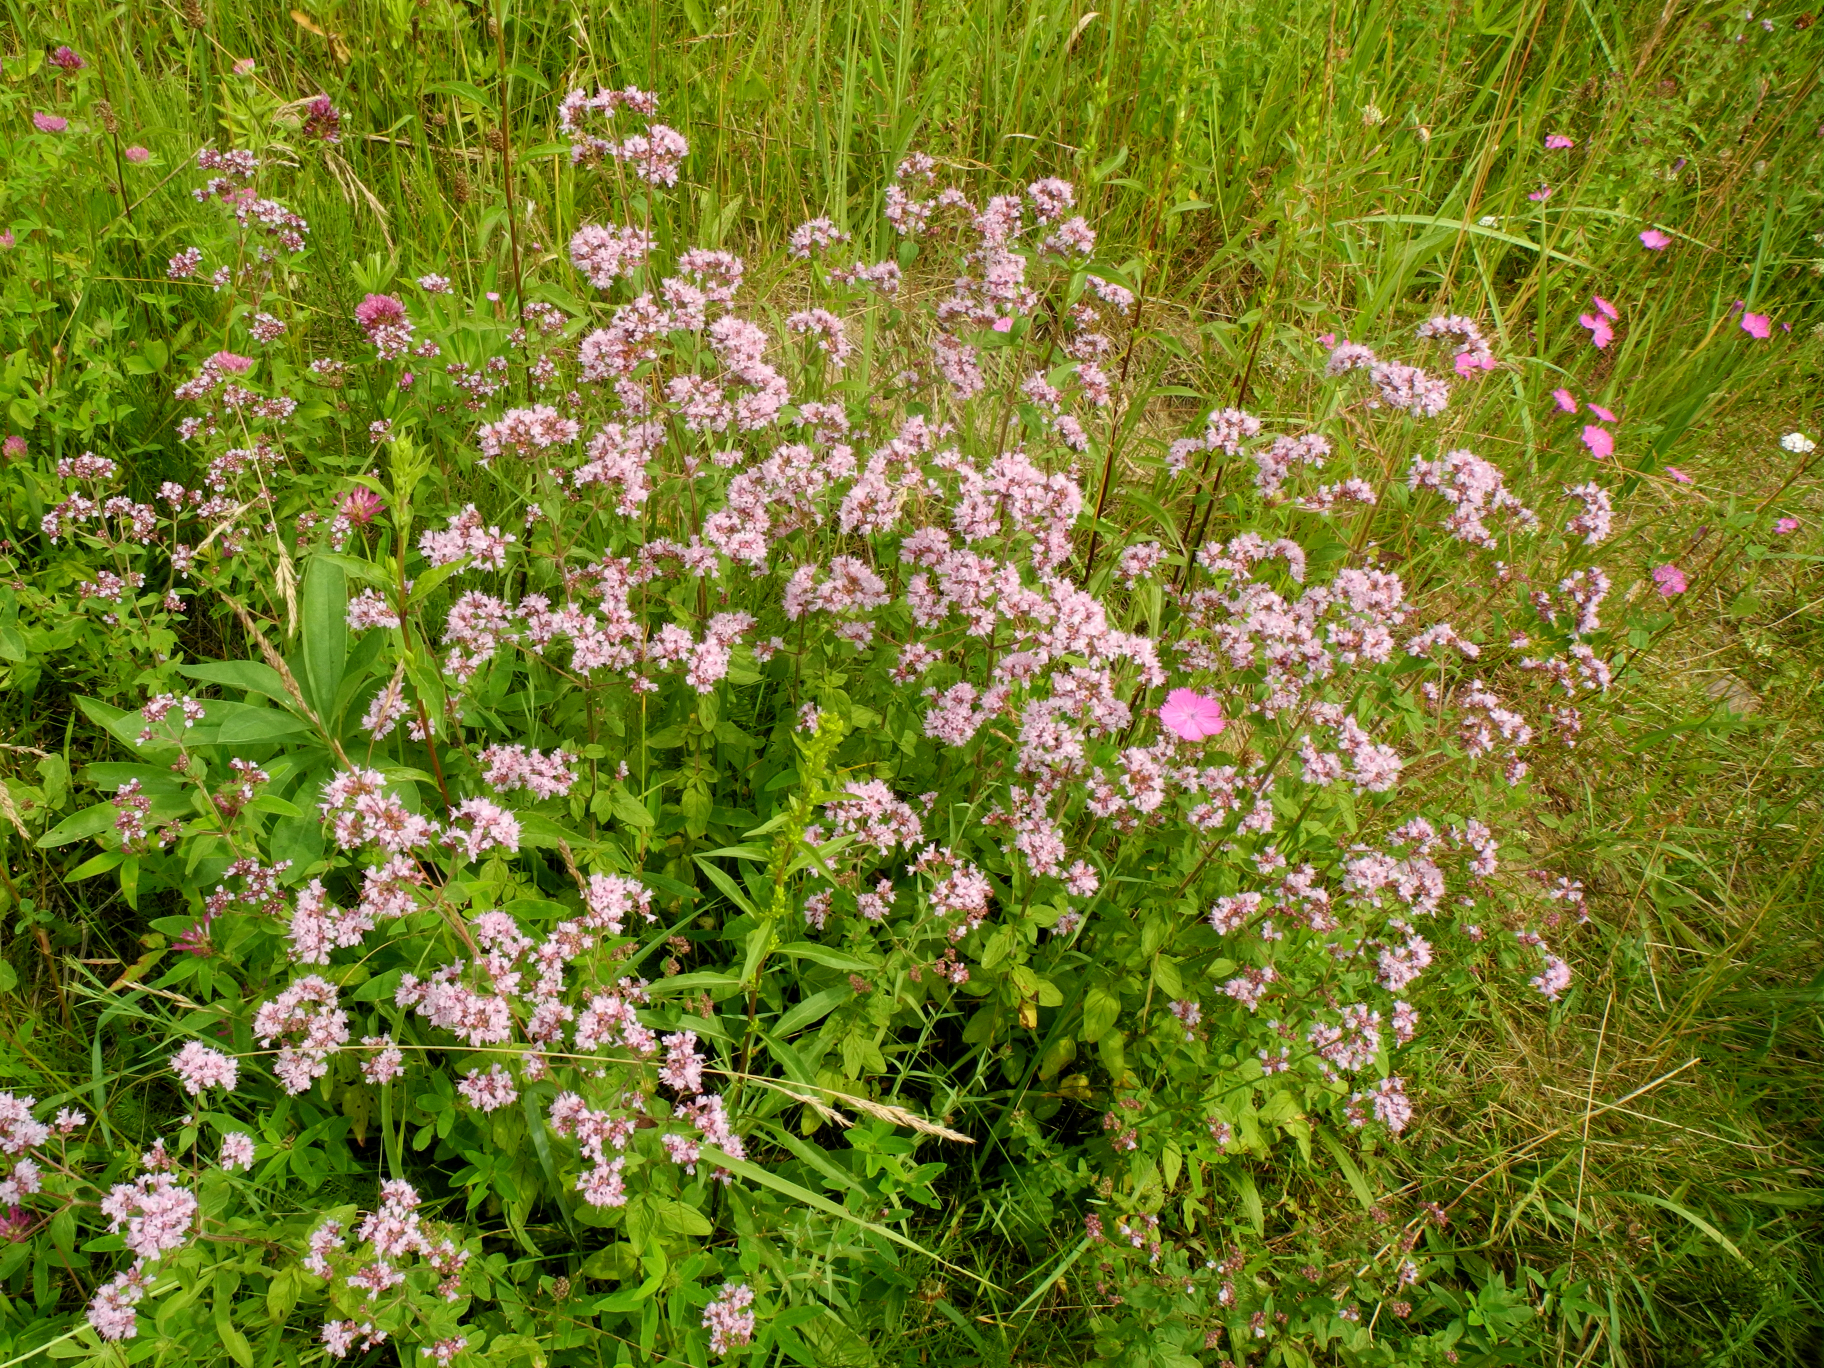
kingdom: Plantae
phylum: Tracheophyta
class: Magnoliopsida
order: Lamiales
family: Lamiaceae
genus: Origanum
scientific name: Origanum vulgare
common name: Wild marjoram
